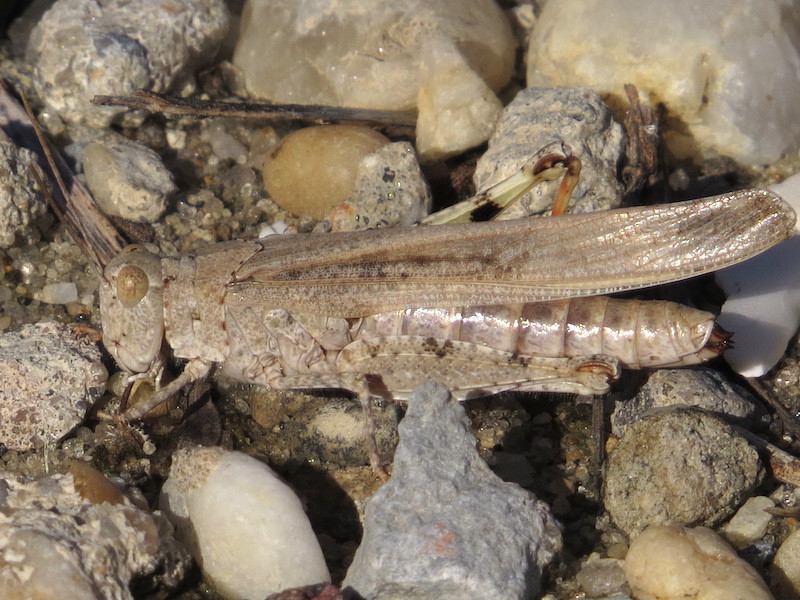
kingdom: Animalia
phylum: Arthropoda
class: Insecta
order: Orthoptera
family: Acrididae
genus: Trimerotropis
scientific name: Trimerotropis maritima
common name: Seaside locust
